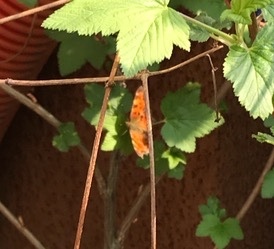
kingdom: Animalia
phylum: Arthropoda
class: Insecta
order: Lepidoptera
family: Nymphalidae
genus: Polygonia
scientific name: Polygonia c-album
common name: Comma
